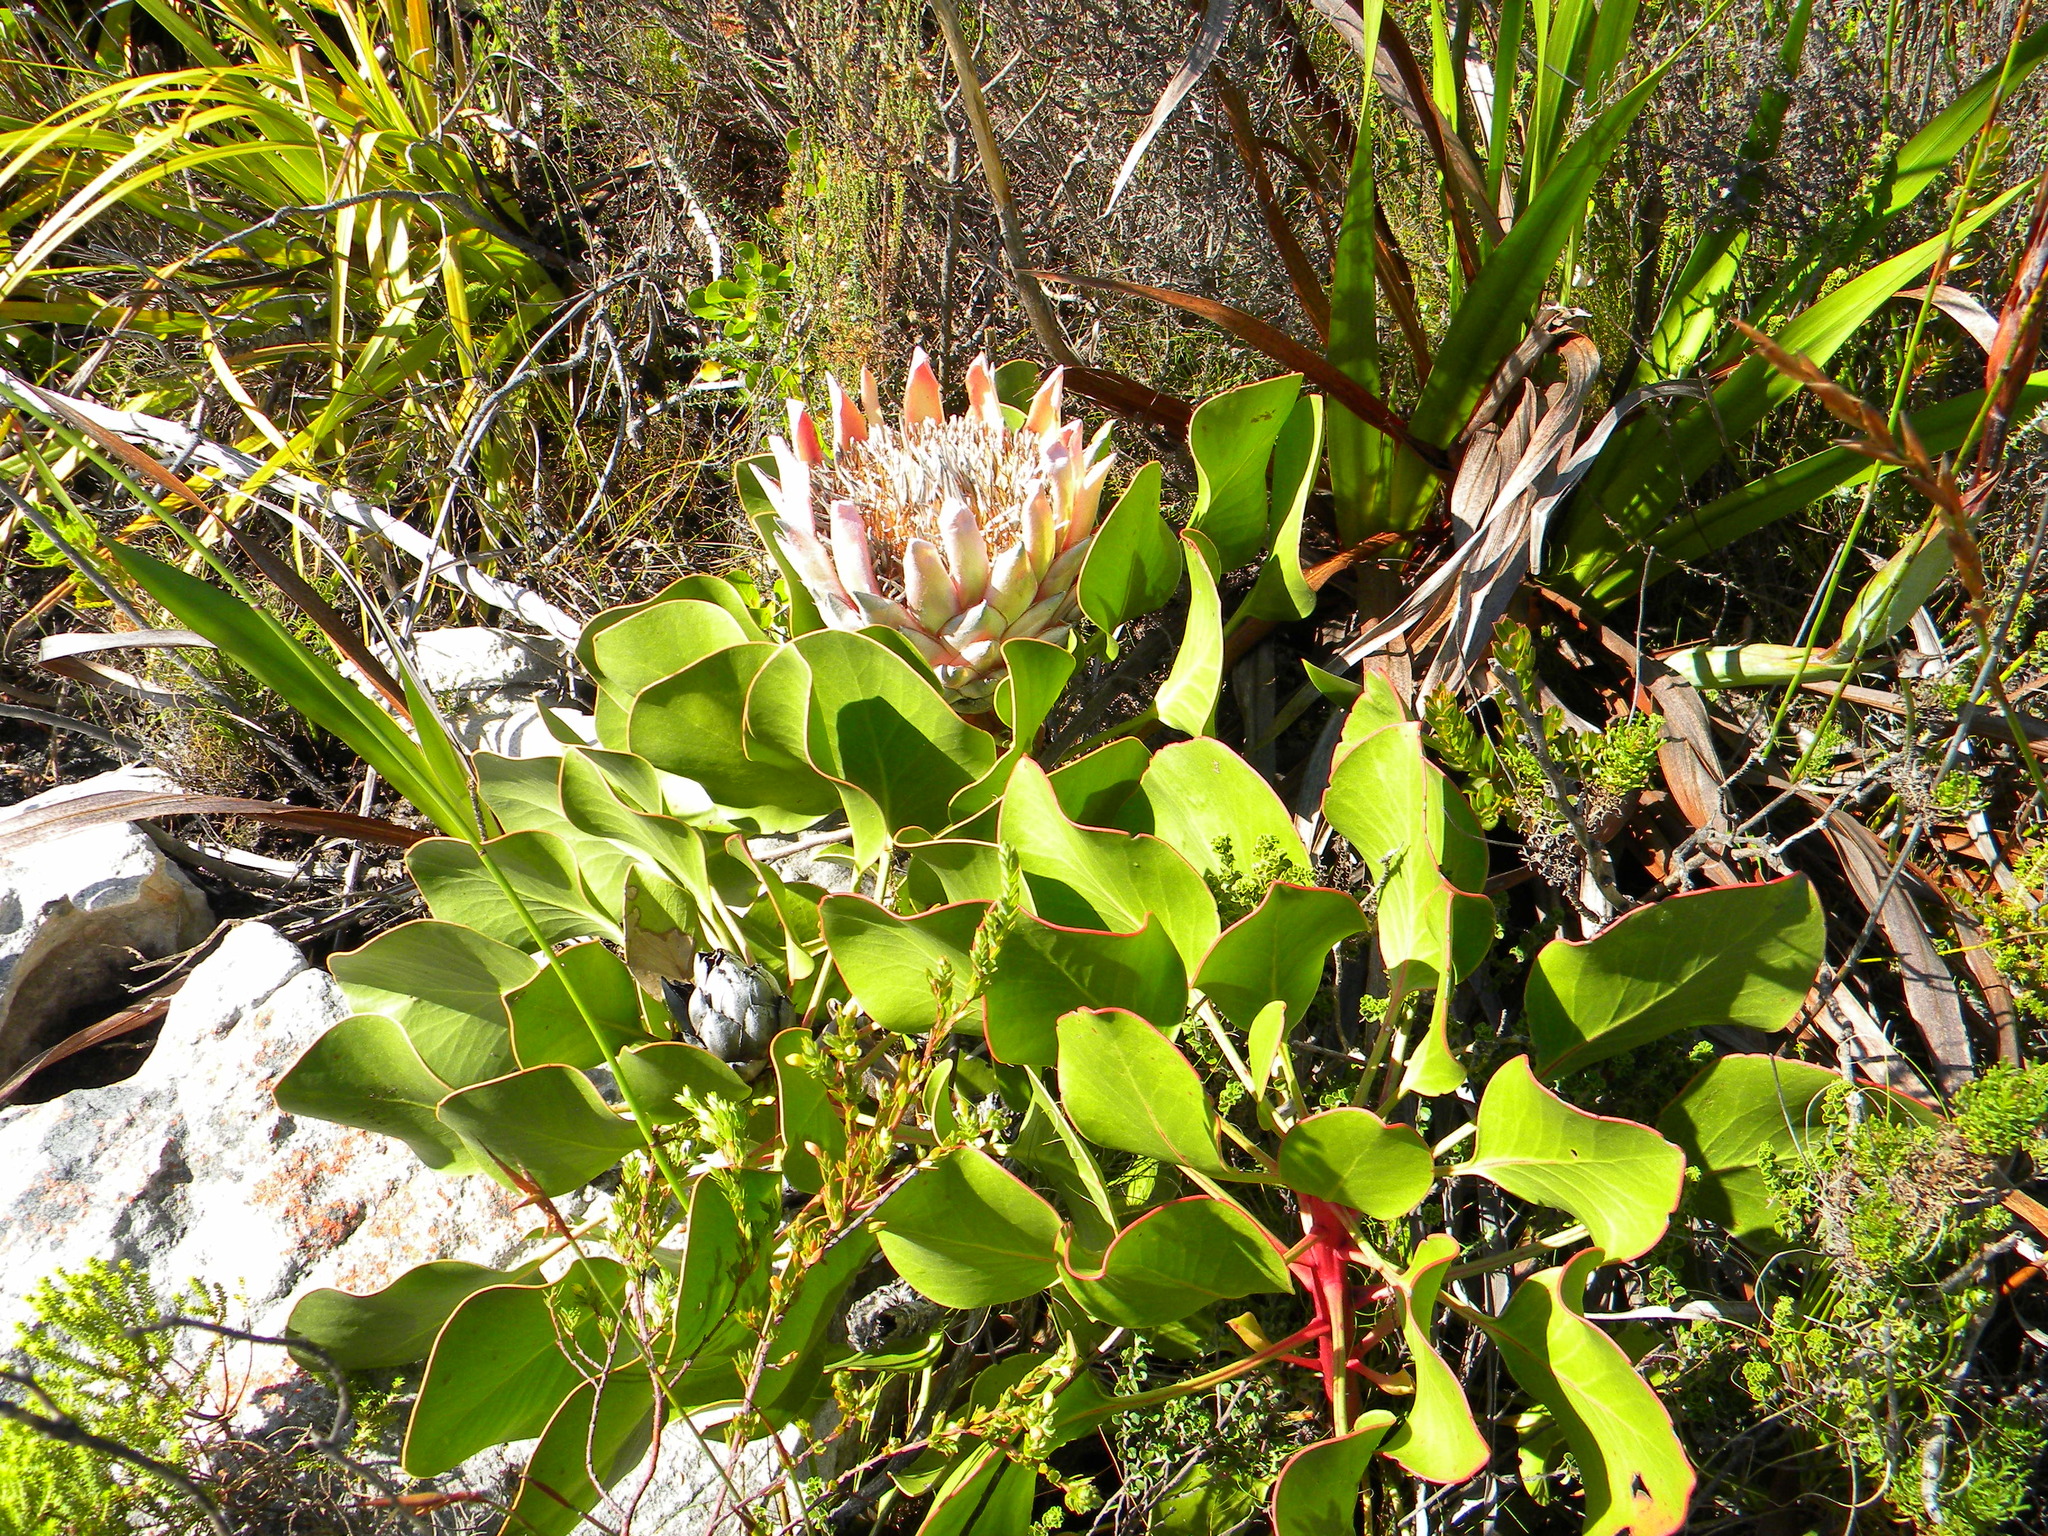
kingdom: Plantae
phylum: Tracheophyta
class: Magnoliopsida
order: Proteales
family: Proteaceae
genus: Protea
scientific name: Protea cynaroides
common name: King protea
